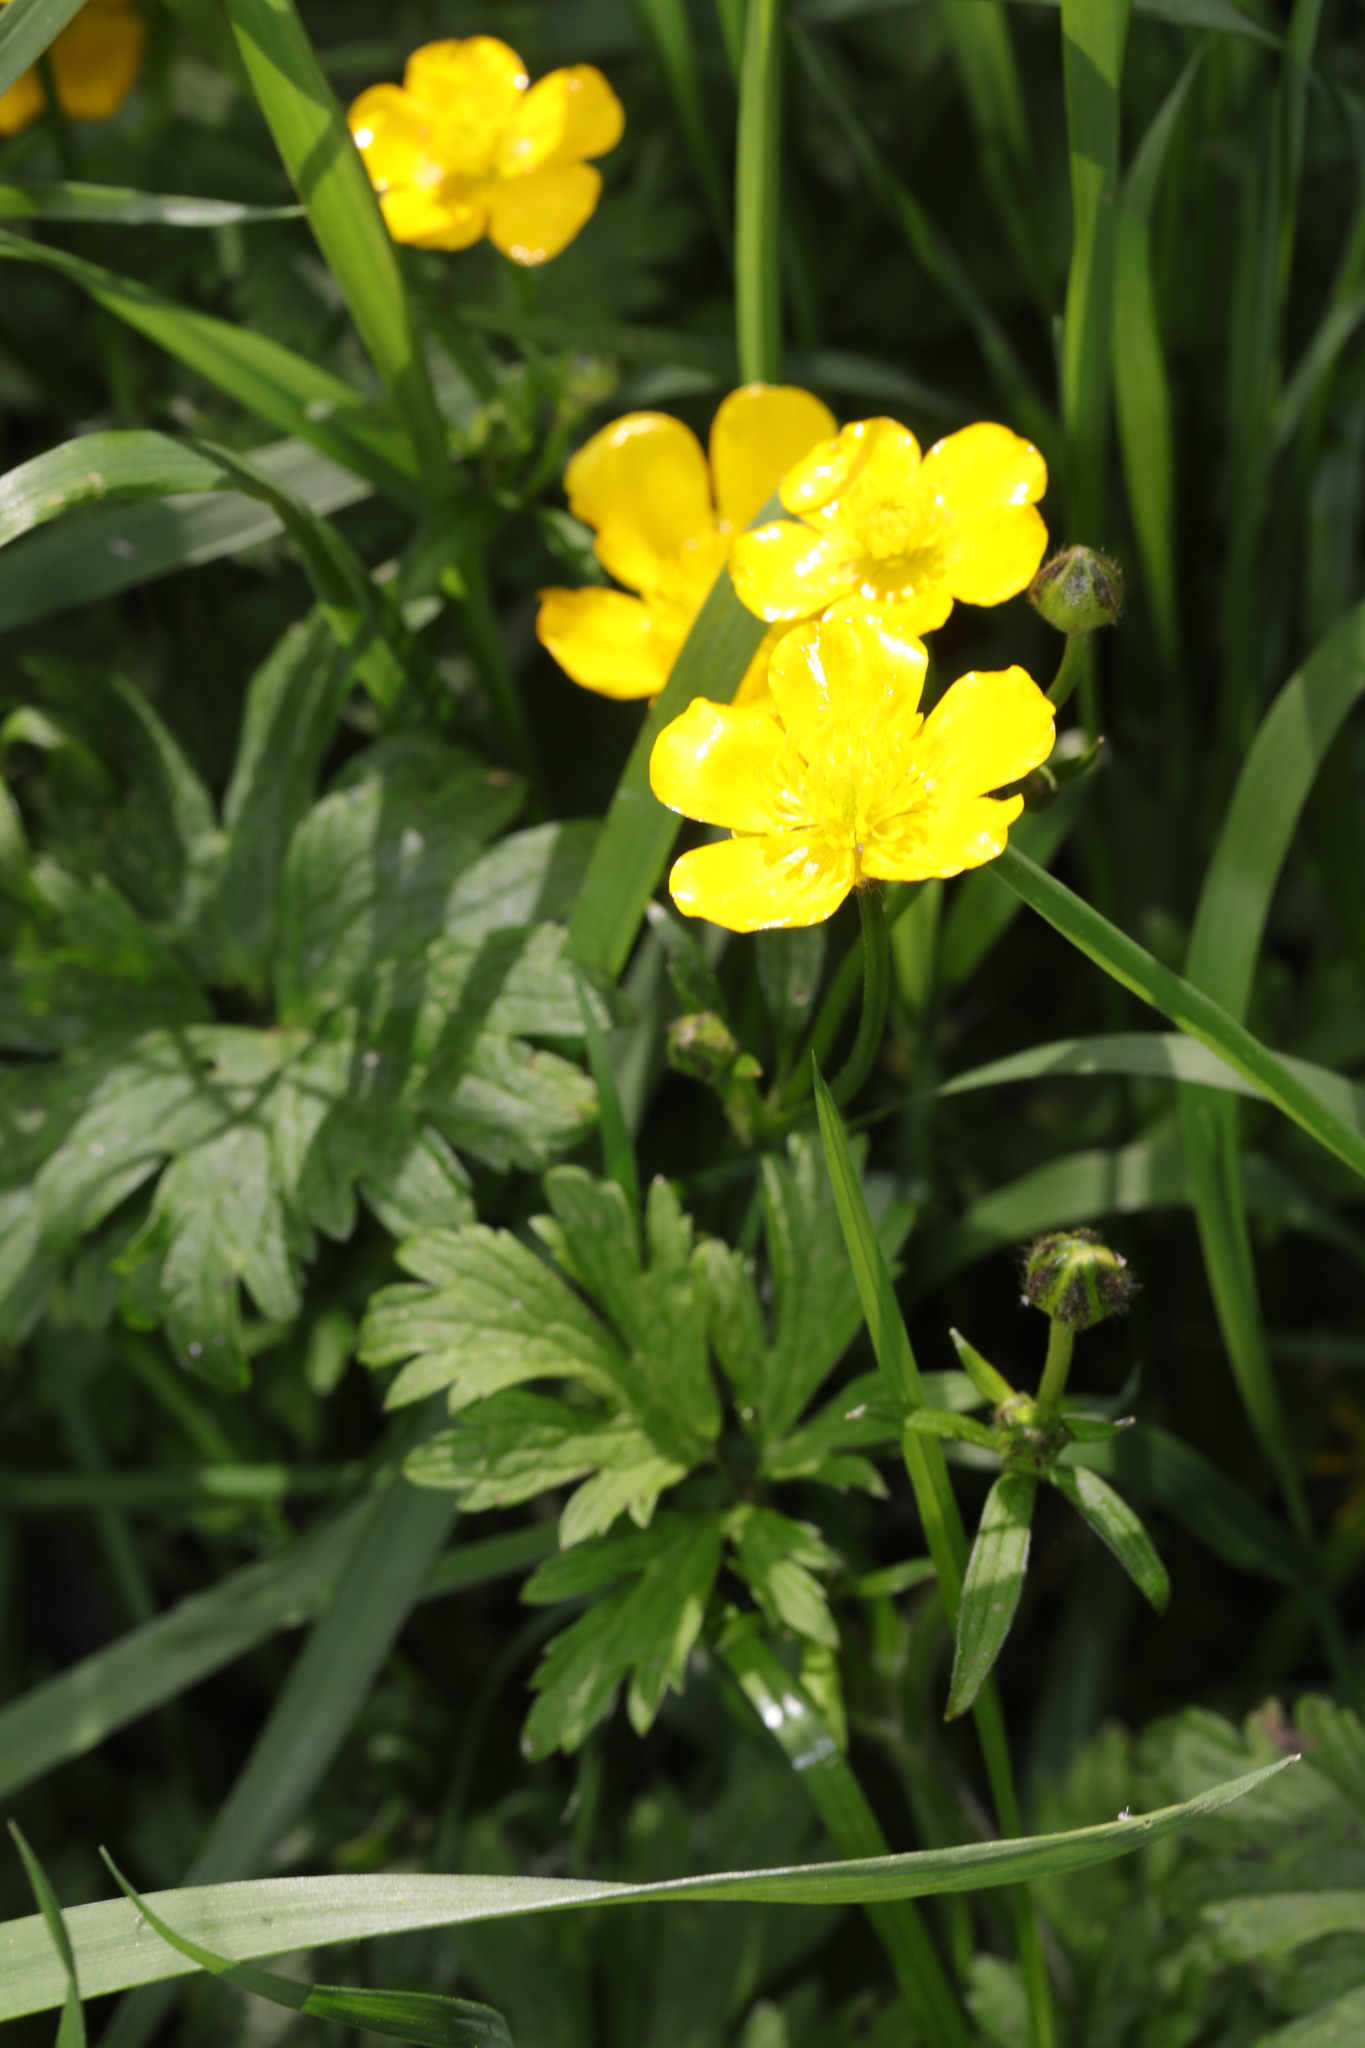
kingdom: Plantae
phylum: Tracheophyta
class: Magnoliopsida
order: Ranunculales
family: Ranunculaceae
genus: Ranunculus
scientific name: Ranunculus repens
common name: Creeping buttercup
